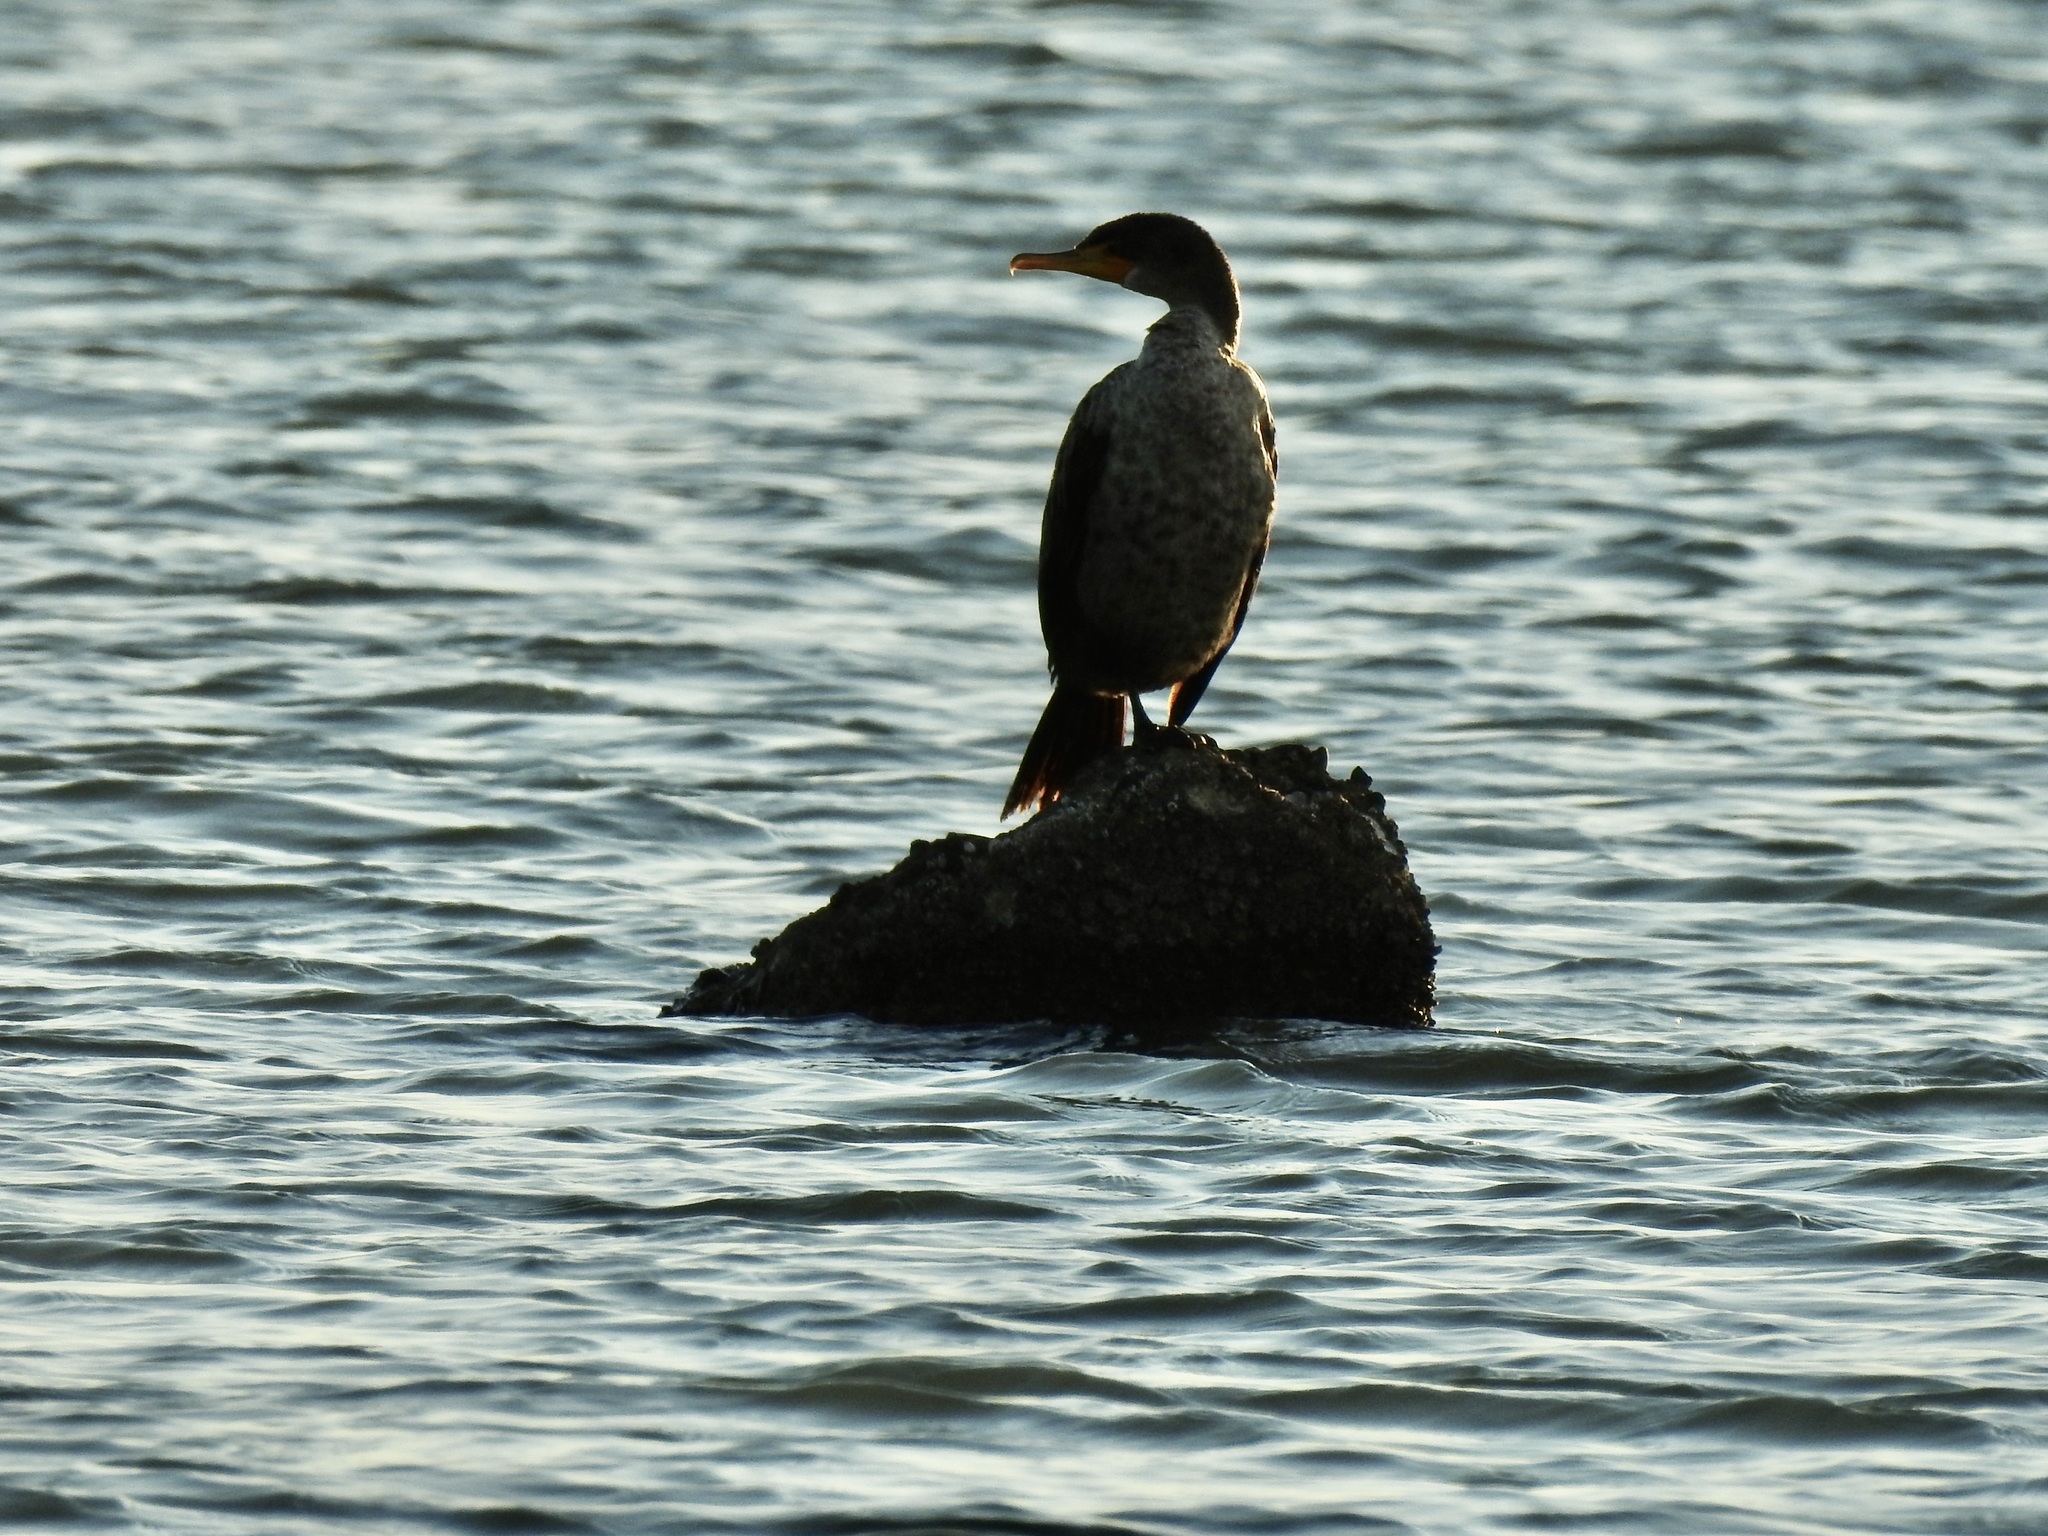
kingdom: Animalia
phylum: Chordata
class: Aves
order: Suliformes
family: Phalacrocoracidae
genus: Phalacrocorax
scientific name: Phalacrocorax auritus
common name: Double-crested cormorant
